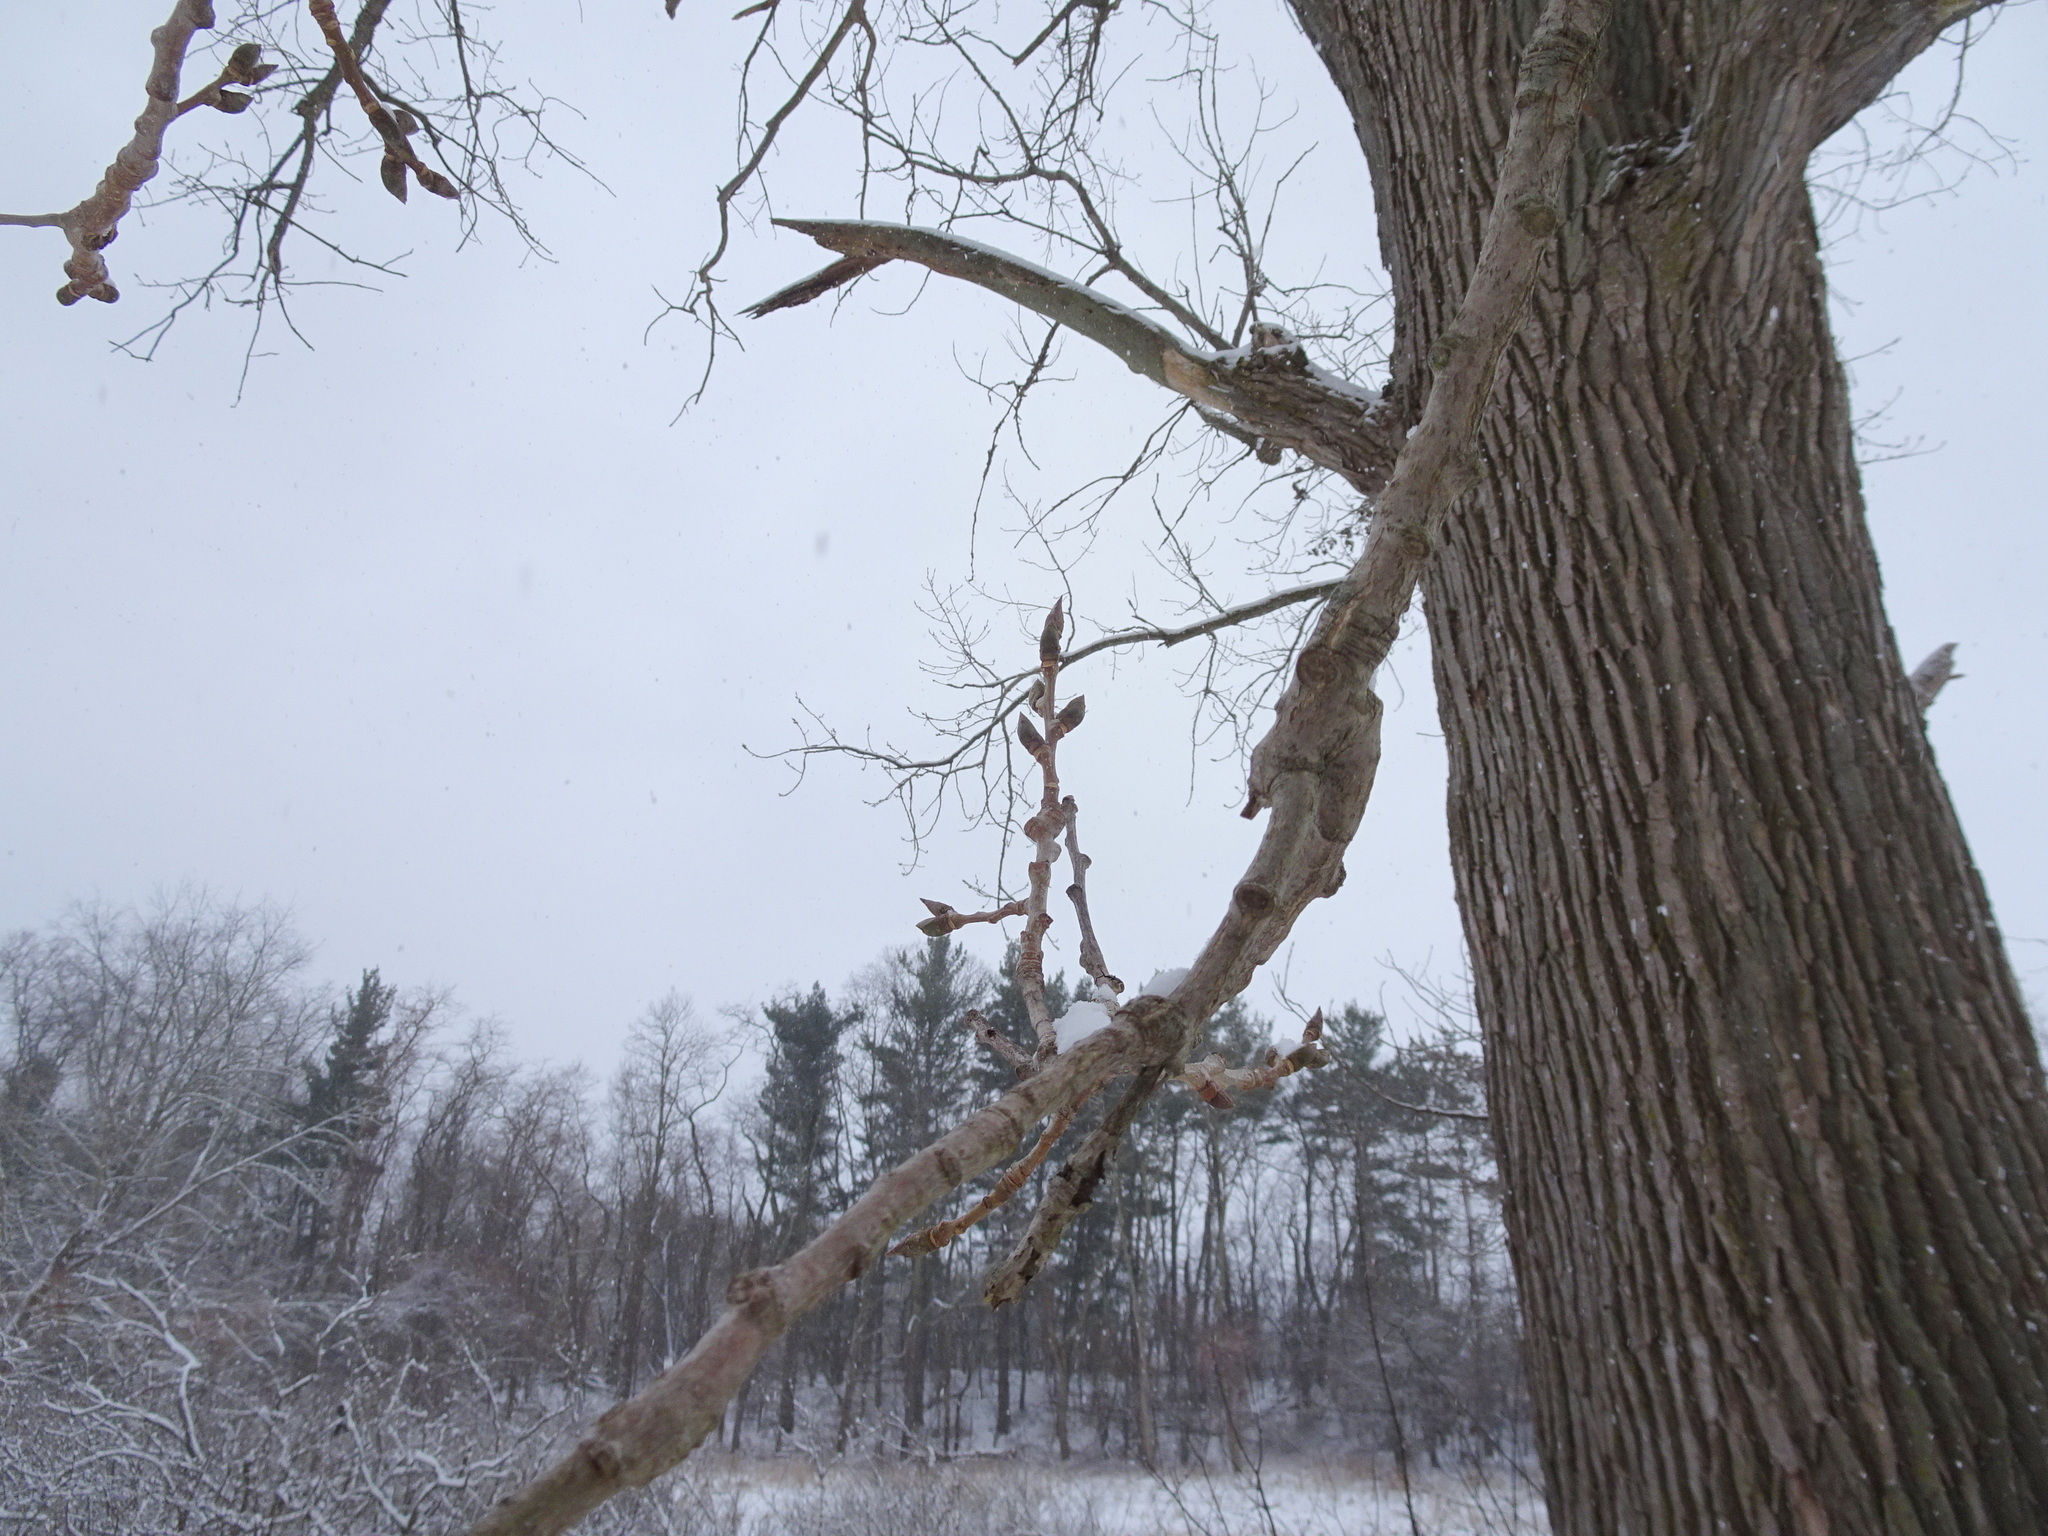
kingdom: Plantae
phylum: Tracheophyta
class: Magnoliopsida
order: Malpighiales
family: Salicaceae
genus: Populus
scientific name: Populus deltoides
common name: Eastern cottonwood
